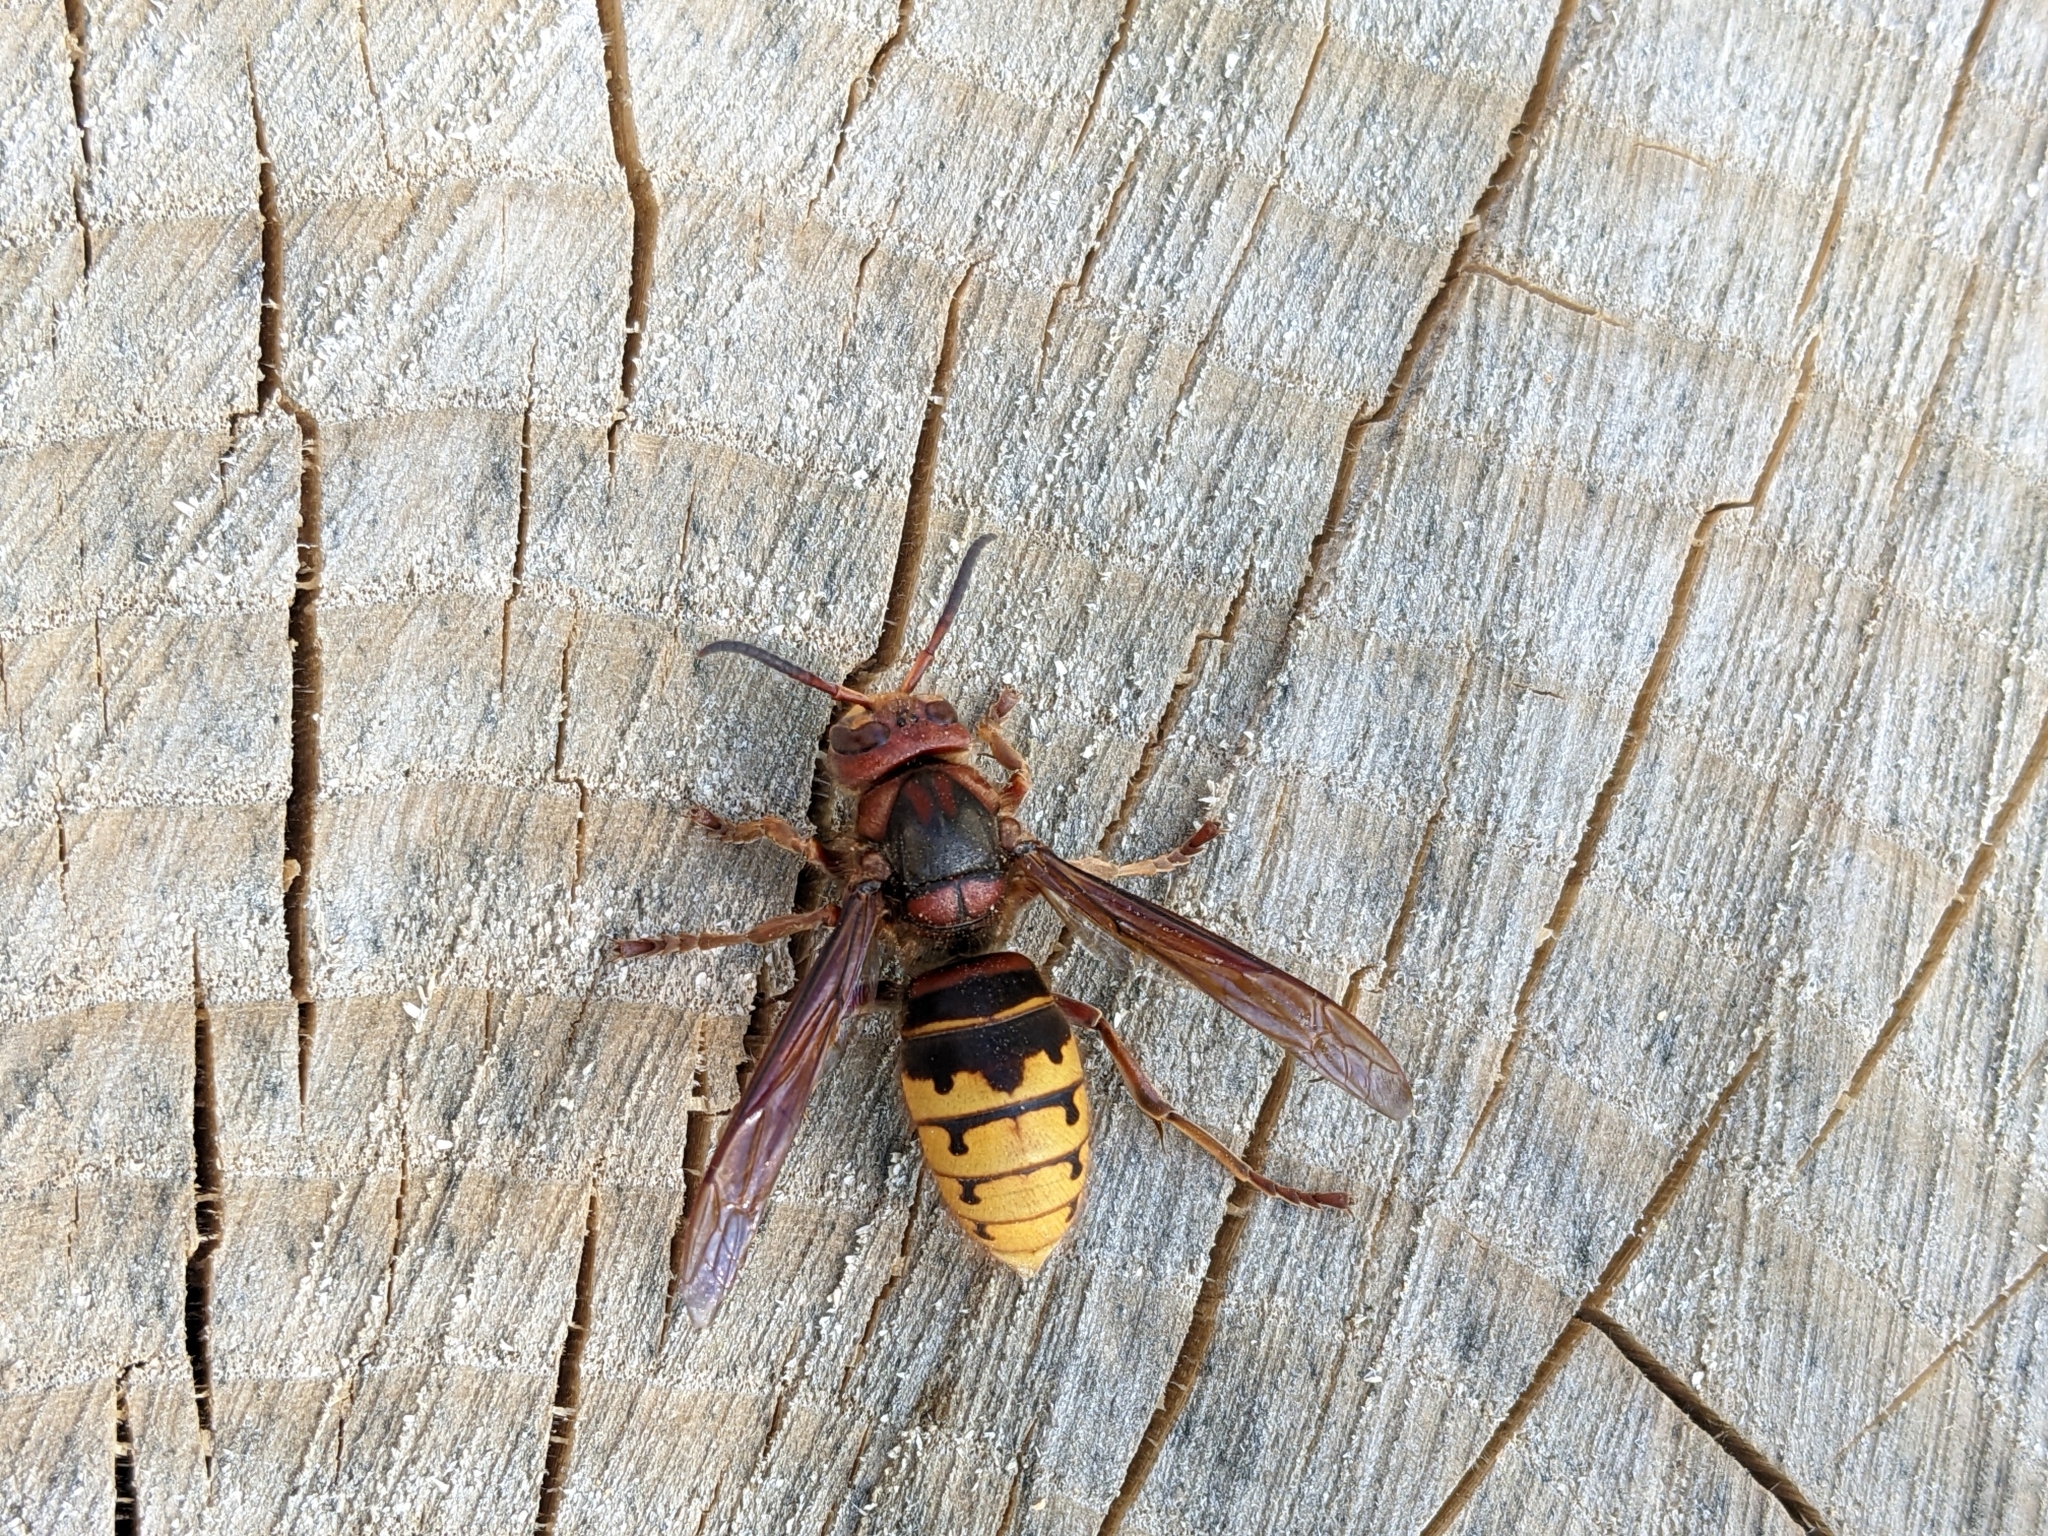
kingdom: Animalia
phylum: Arthropoda
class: Insecta
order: Hymenoptera
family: Vespidae
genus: Vespa
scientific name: Vespa crabro
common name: Hornet
